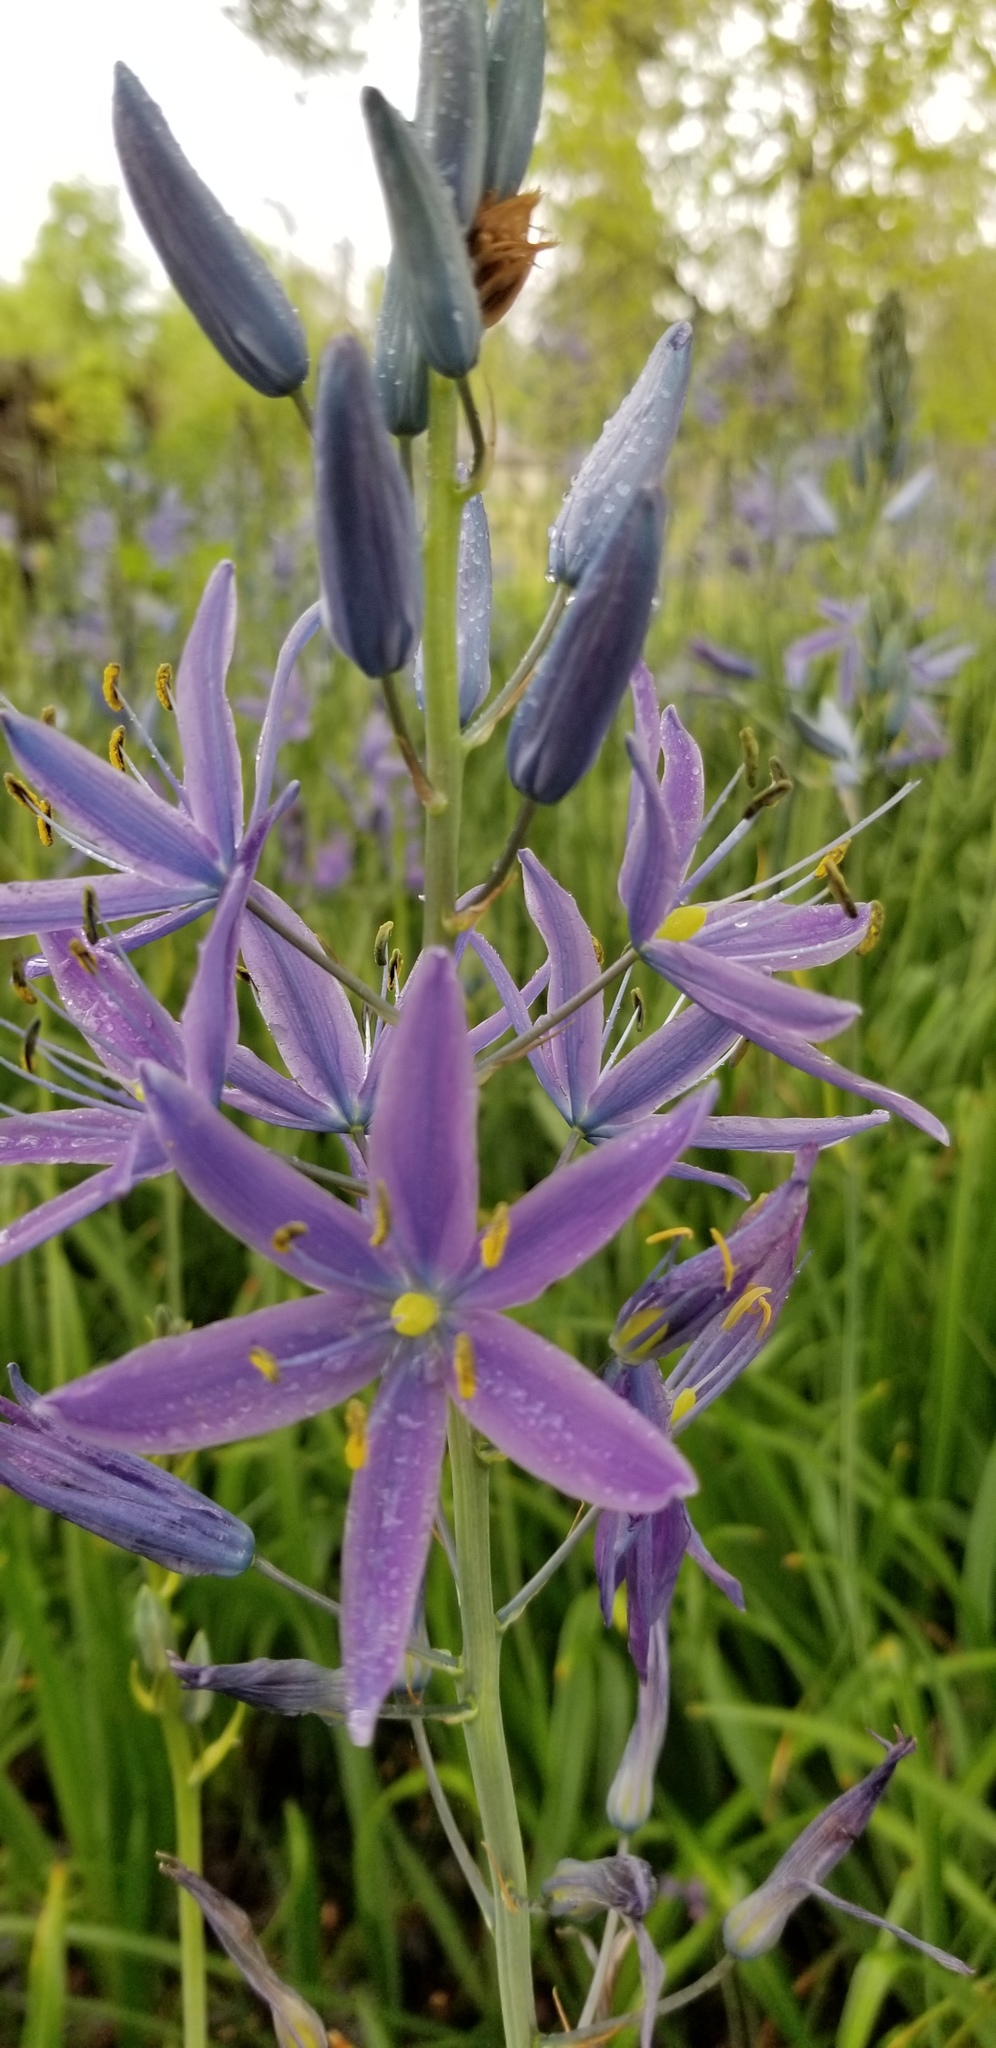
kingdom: Plantae
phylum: Tracheophyta
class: Liliopsida
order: Asparagales
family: Asparagaceae
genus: Camassia
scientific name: Camassia leichtlinii
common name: Leichtlin's camas
